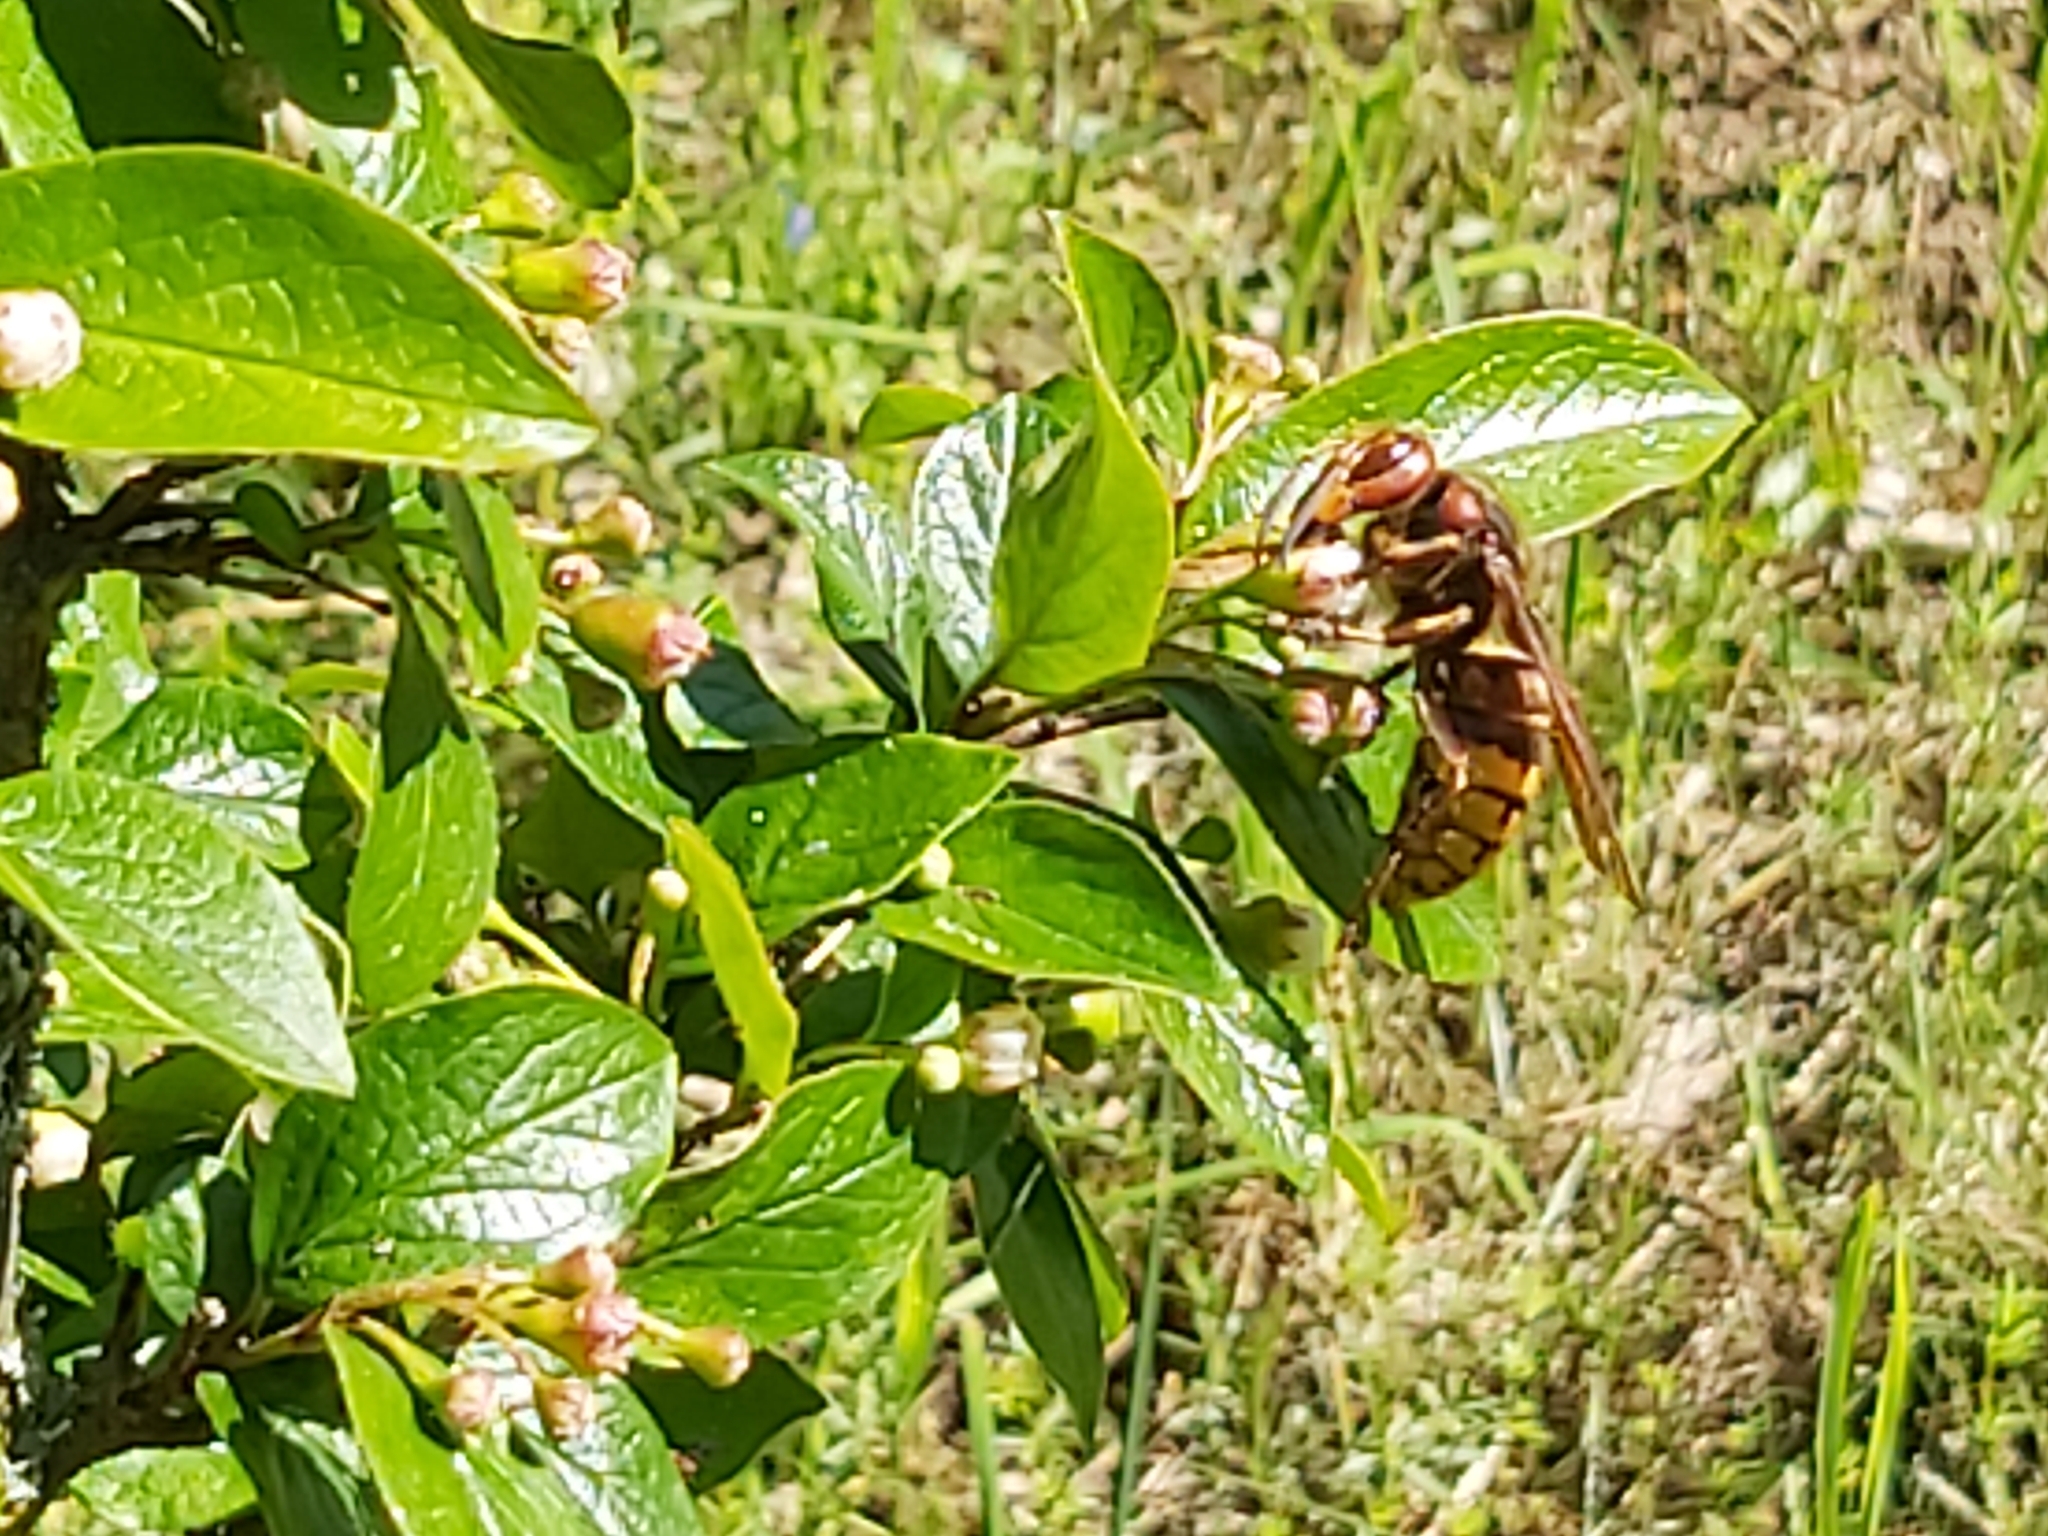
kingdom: Animalia
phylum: Arthropoda
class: Insecta
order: Hymenoptera
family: Vespidae
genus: Vespa
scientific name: Vespa crabro
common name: Hornet
